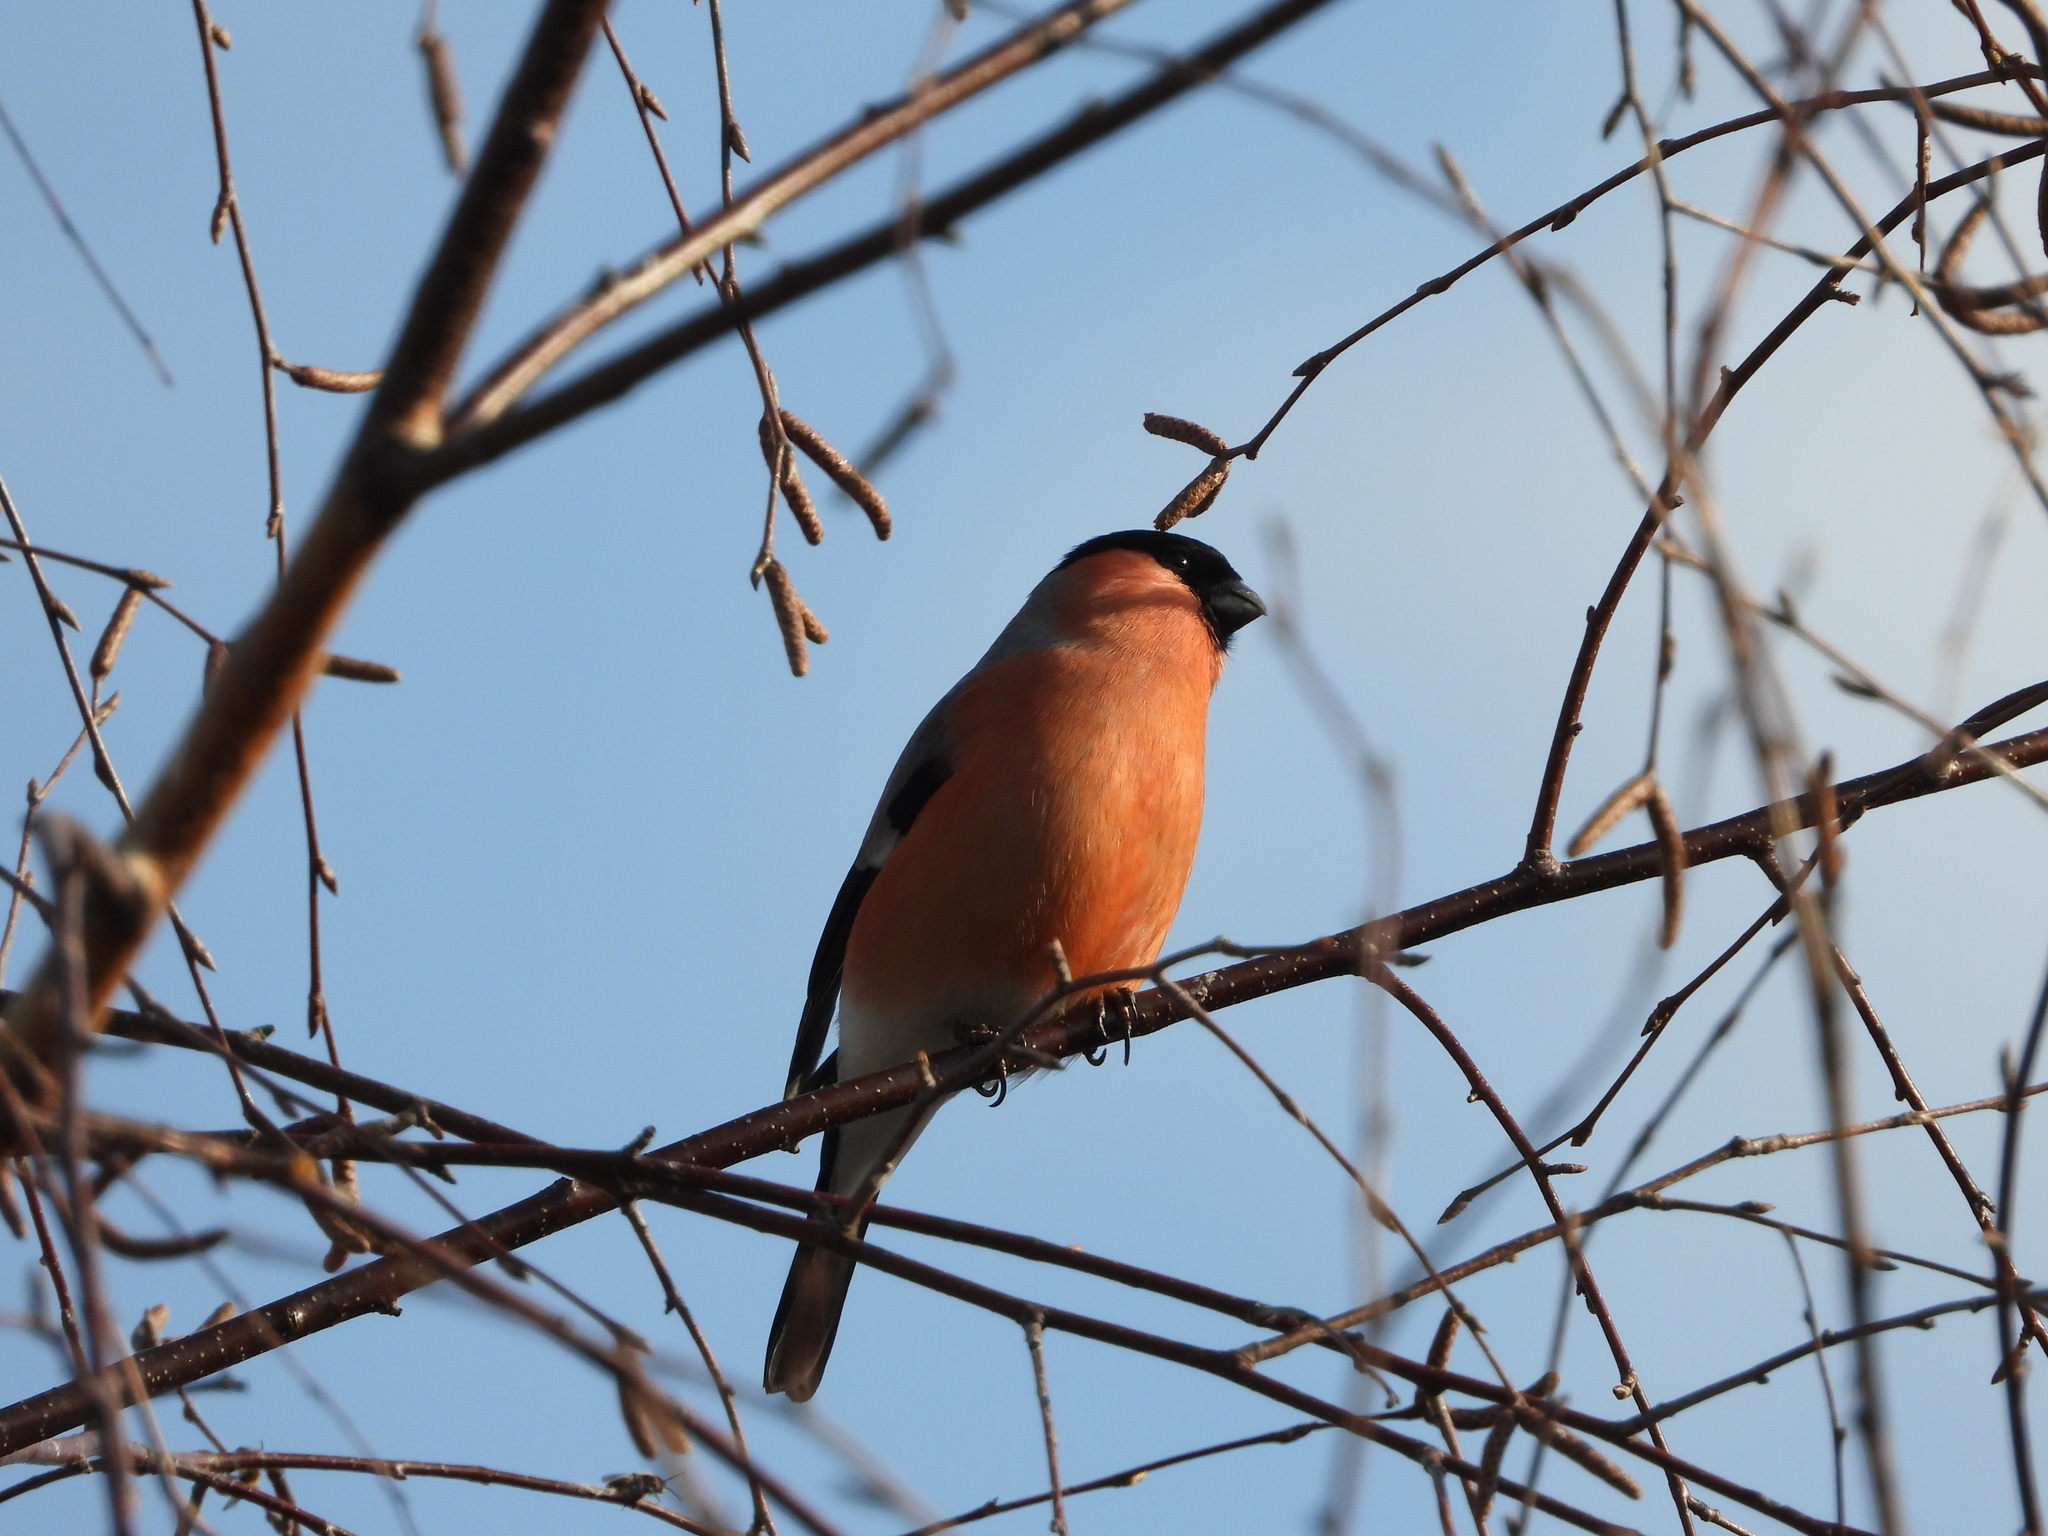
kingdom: Animalia
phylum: Chordata
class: Aves
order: Passeriformes
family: Fringillidae
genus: Pyrrhula
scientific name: Pyrrhula pyrrhula
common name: Eurasian bullfinch
